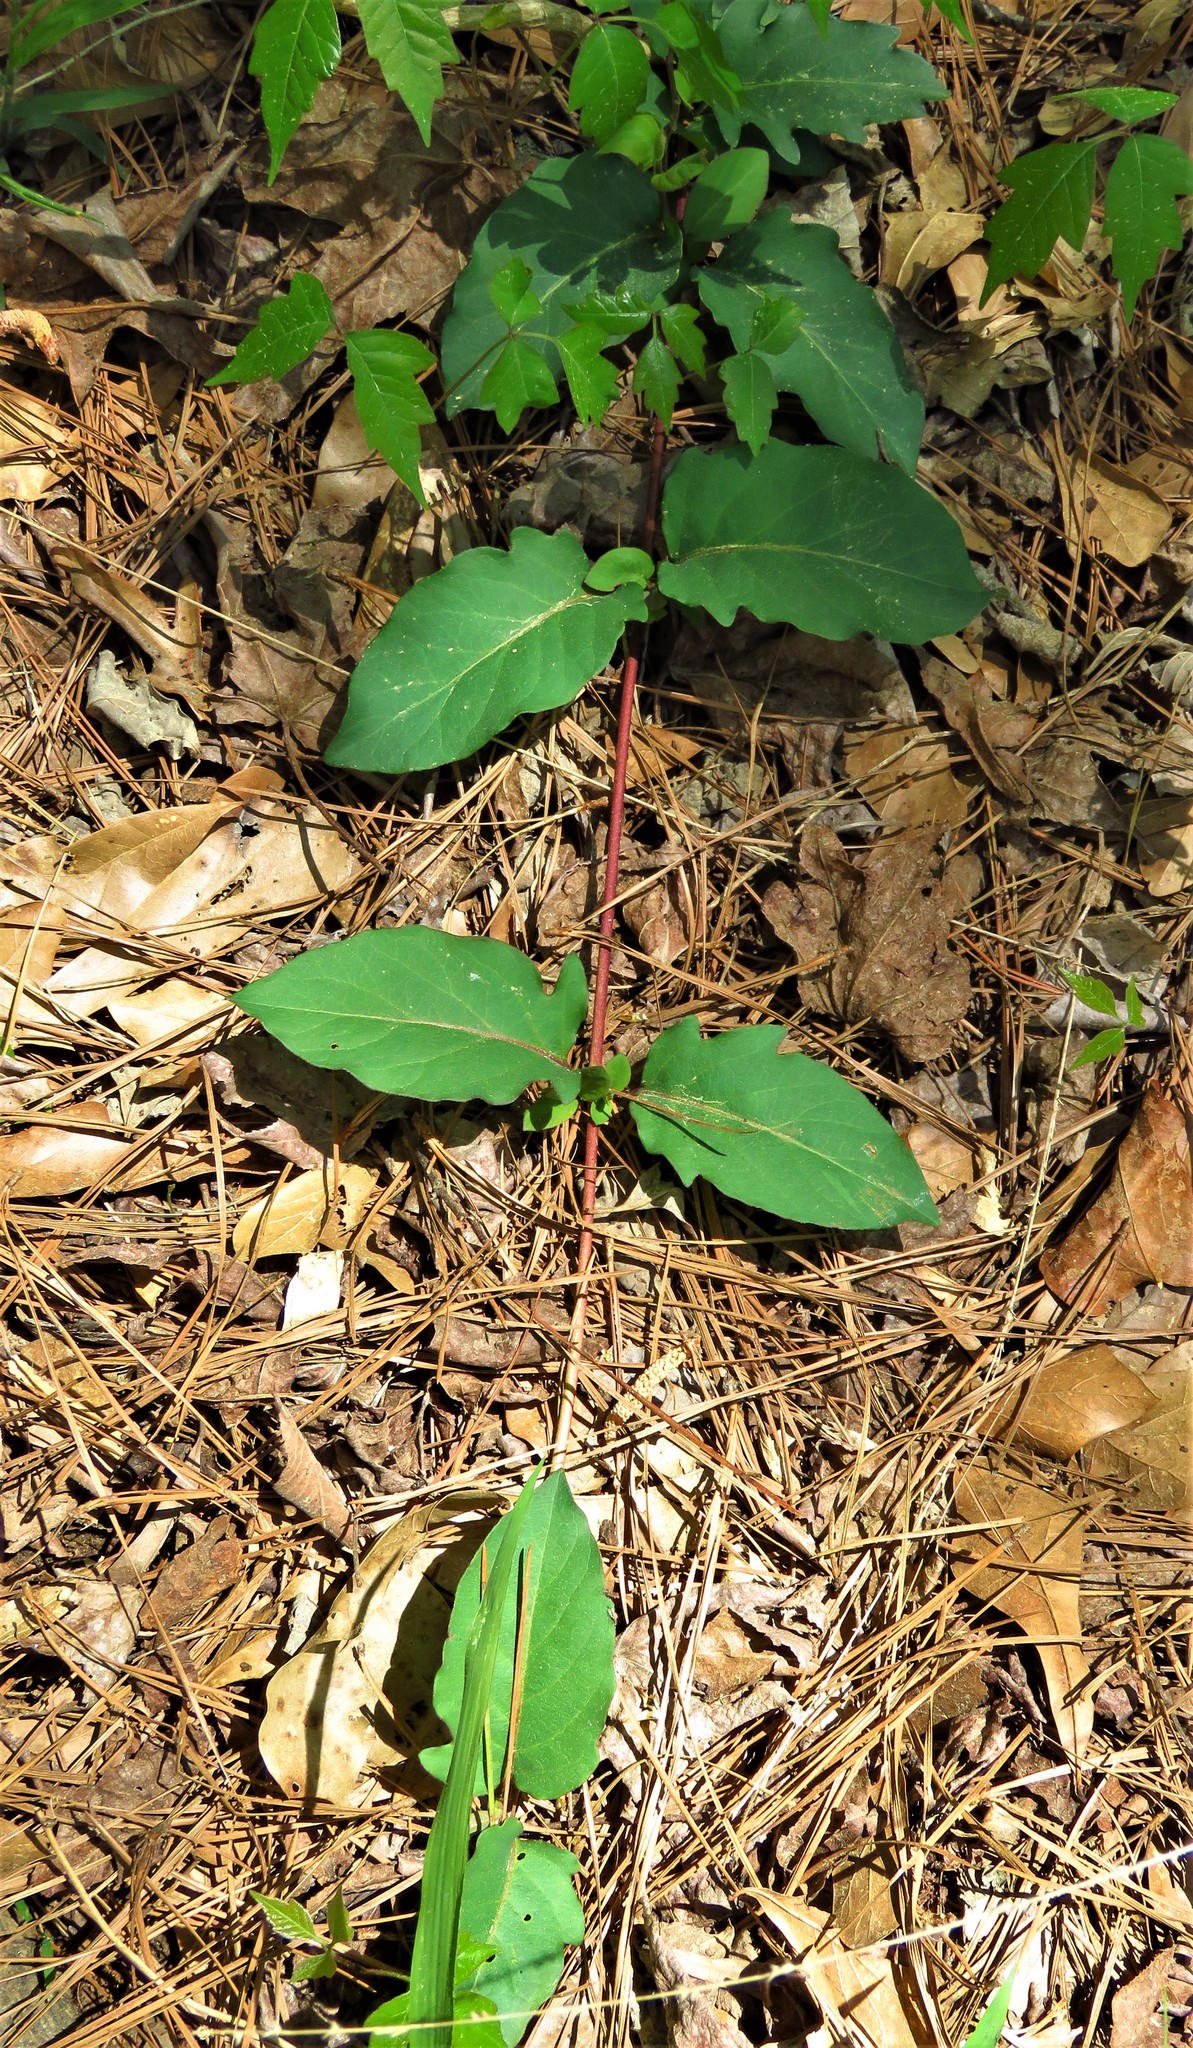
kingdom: Plantae
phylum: Tracheophyta
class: Magnoliopsida
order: Dipsacales
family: Caprifoliaceae
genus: Lonicera
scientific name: Lonicera japonica
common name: Japanese honeysuckle
